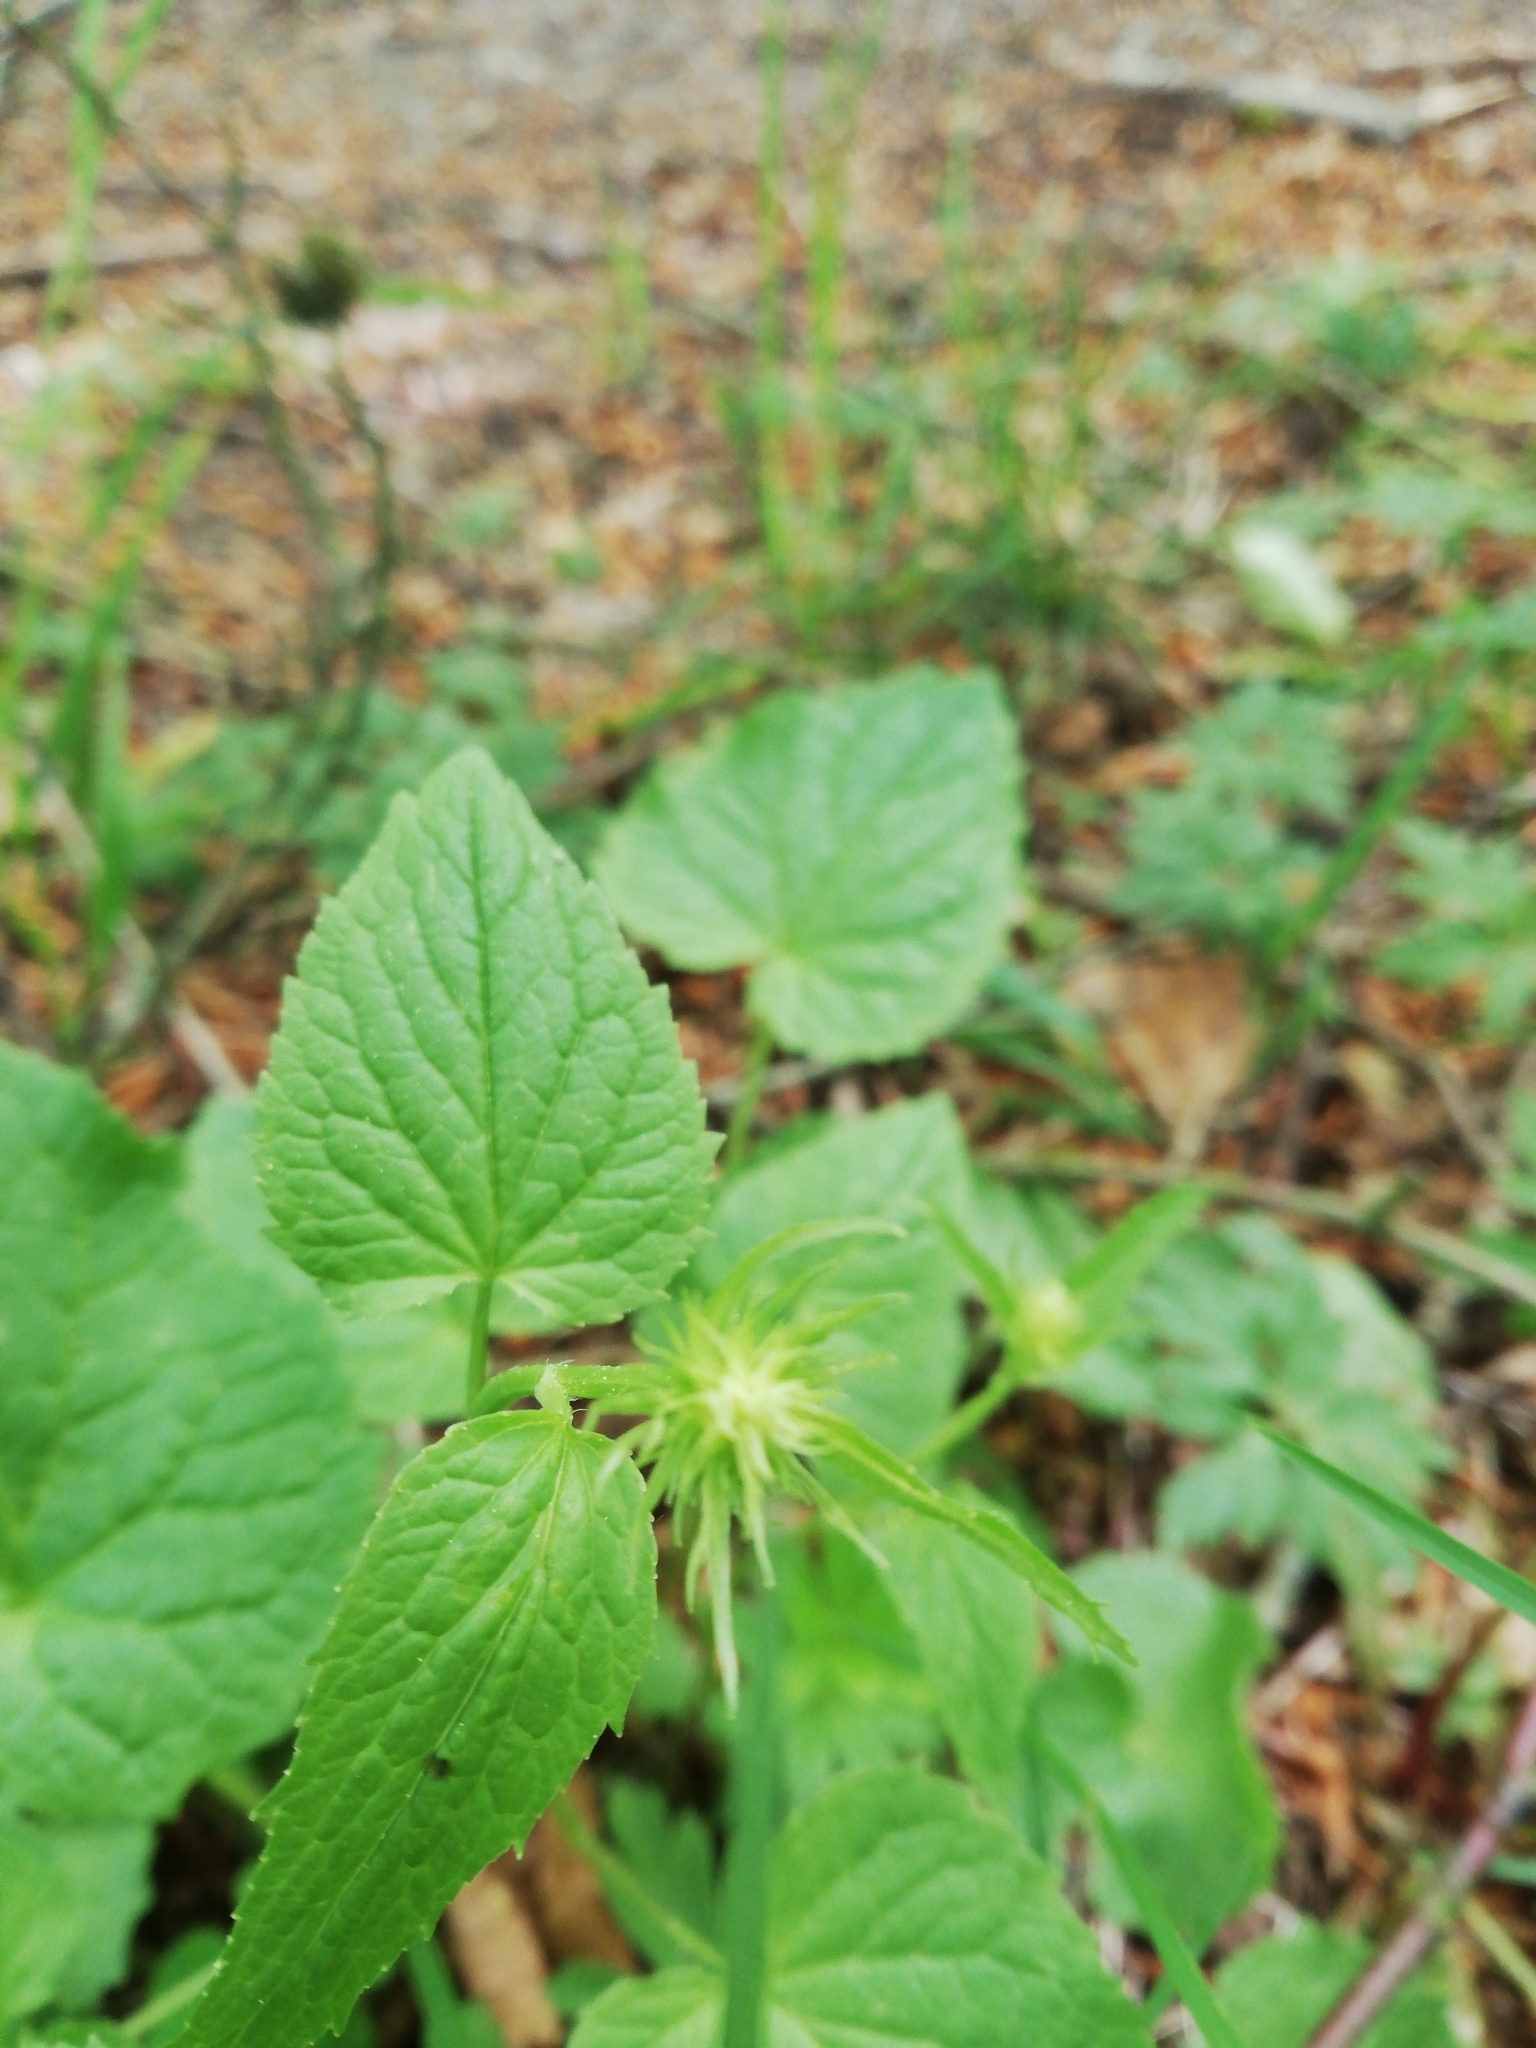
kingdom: Plantae
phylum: Tracheophyta
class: Magnoliopsida
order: Asterales
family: Campanulaceae
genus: Phyteuma
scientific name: Phyteuma spicatum
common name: Spiked rampion
